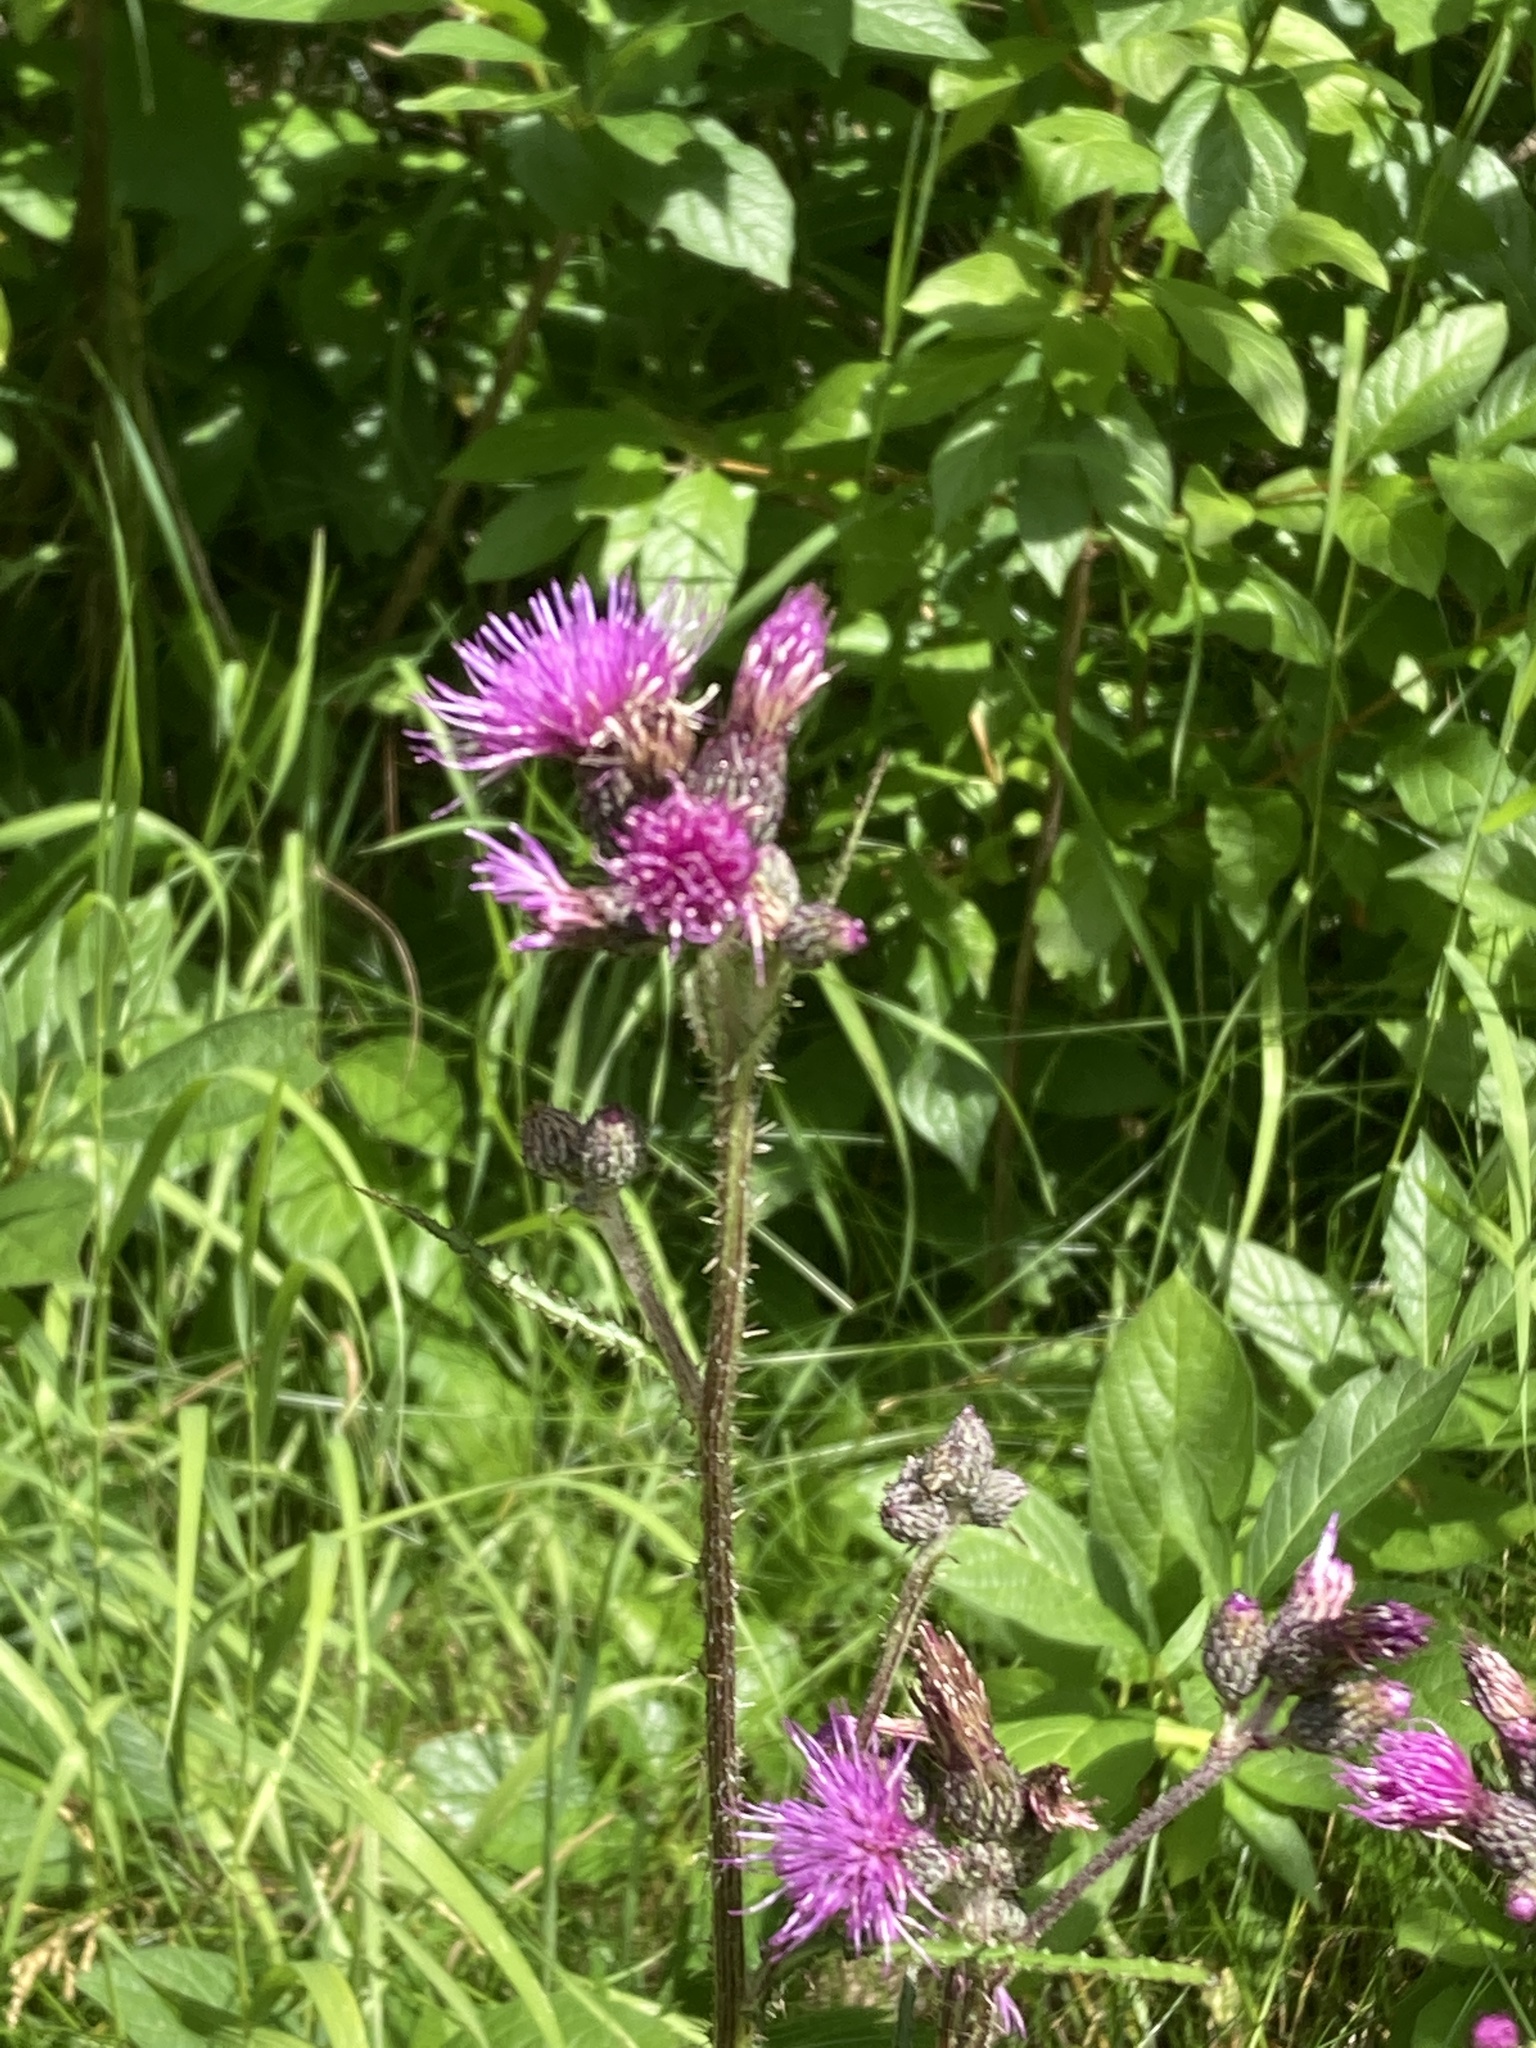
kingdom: Plantae
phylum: Tracheophyta
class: Magnoliopsida
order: Asterales
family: Asteraceae
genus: Cirsium
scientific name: Cirsium palustre
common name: Marsh thistle
